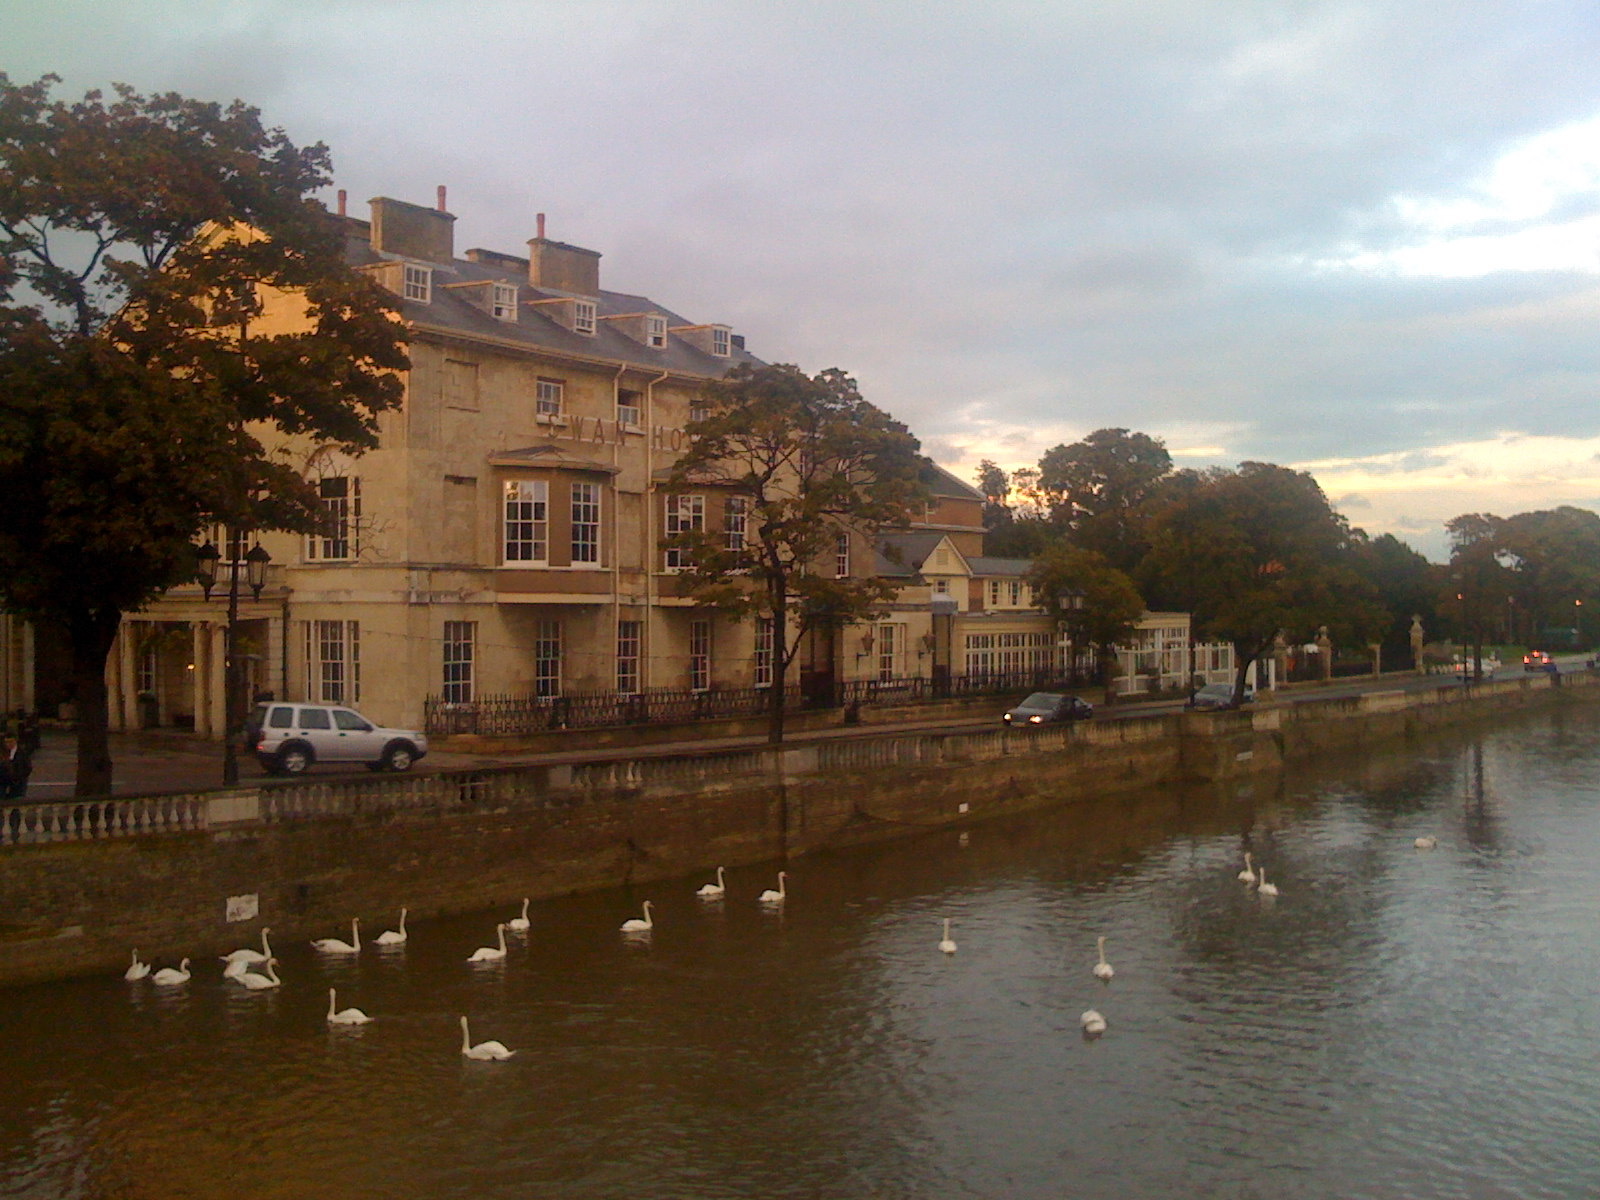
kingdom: Animalia
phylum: Chordata
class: Aves
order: Anseriformes
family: Anatidae
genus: Cygnus
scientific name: Cygnus olor
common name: Mute swan
